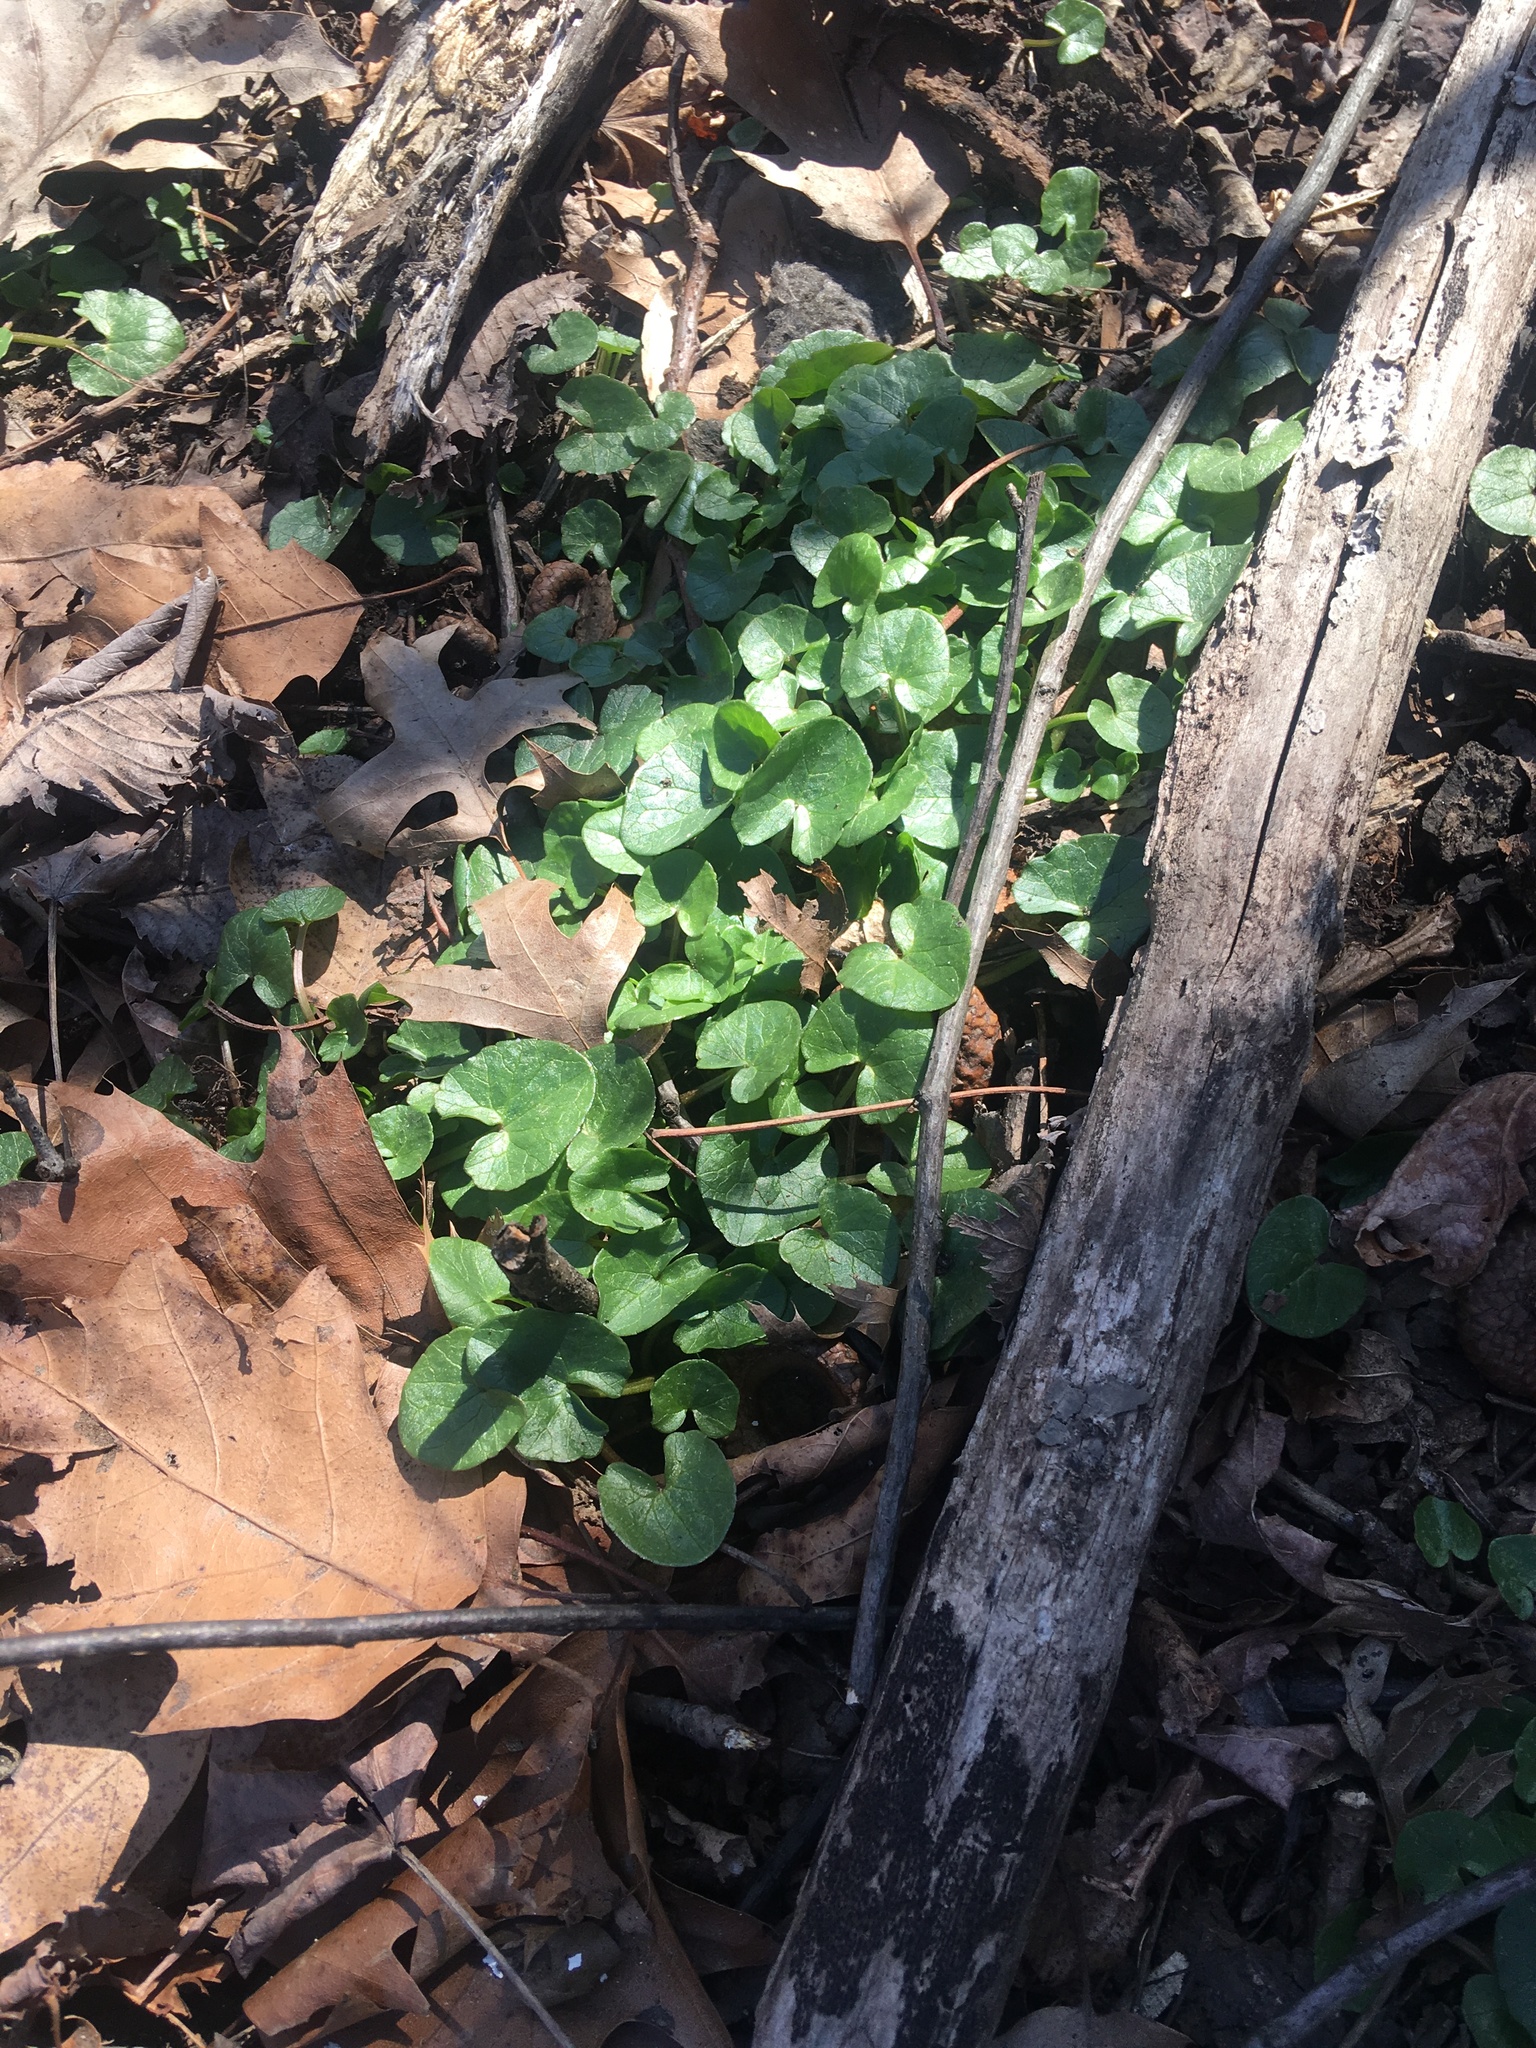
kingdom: Plantae
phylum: Tracheophyta
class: Magnoliopsida
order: Ranunculales
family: Ranunculaceae
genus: Ficaria
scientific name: Ficaria verna
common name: Lesser celandine
